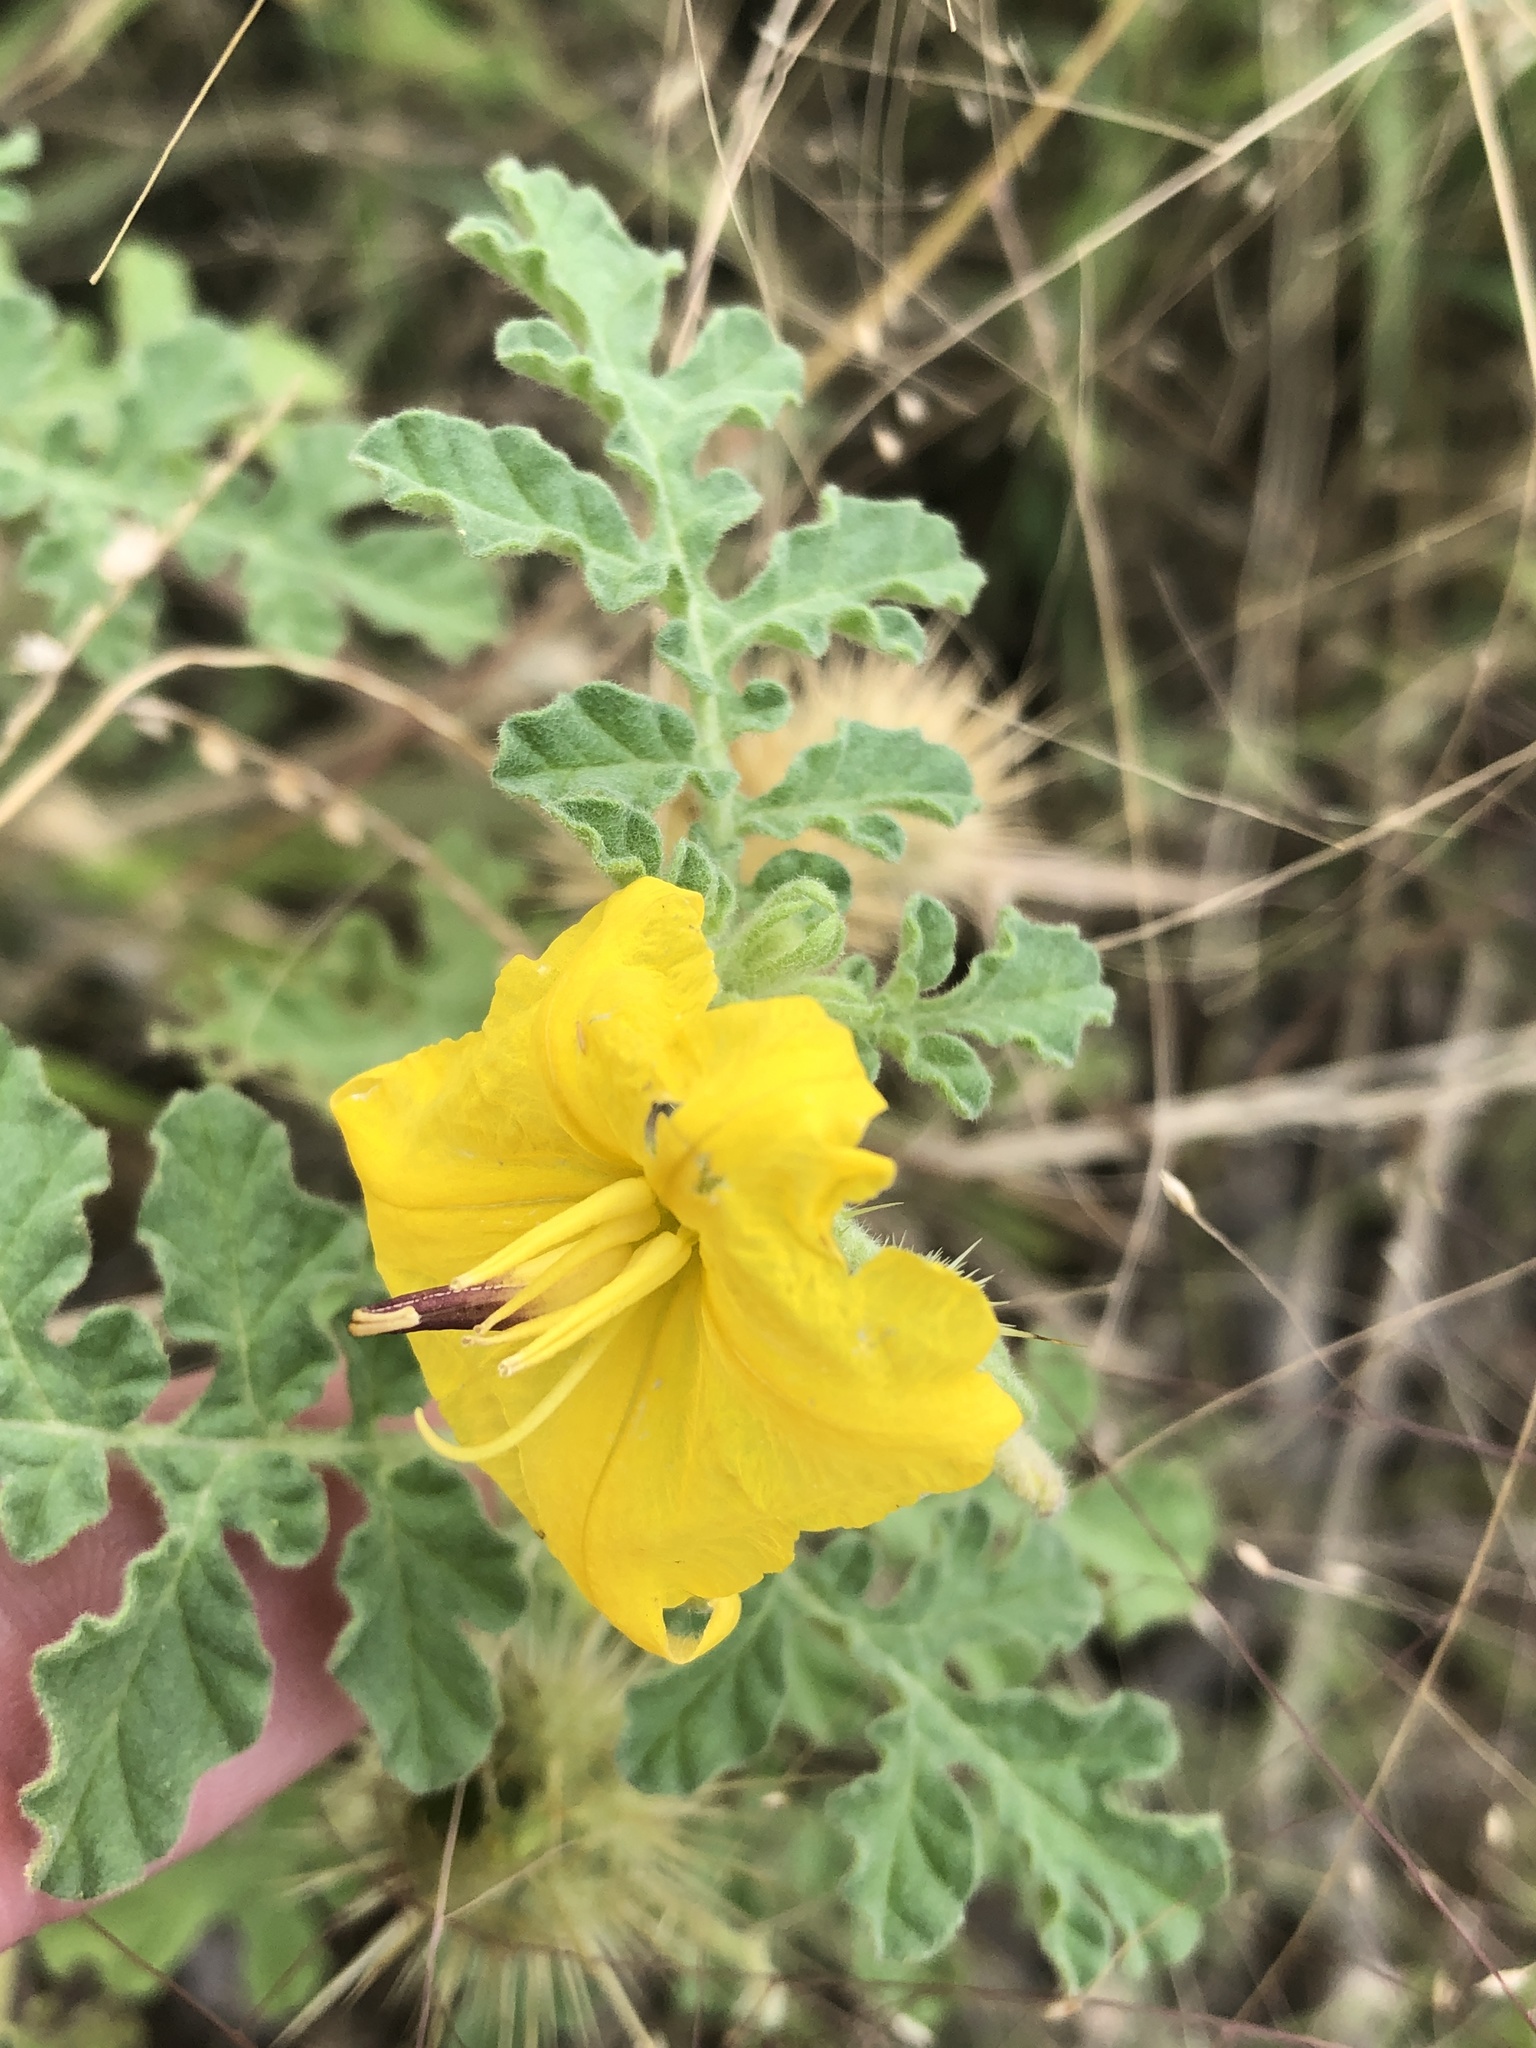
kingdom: Plantae
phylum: Tracheophyta
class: Magnoliopsida
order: Solanales
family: Solanaceae
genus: Solanum
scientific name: Solanum angustifolium
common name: Buffalobur nightshade
